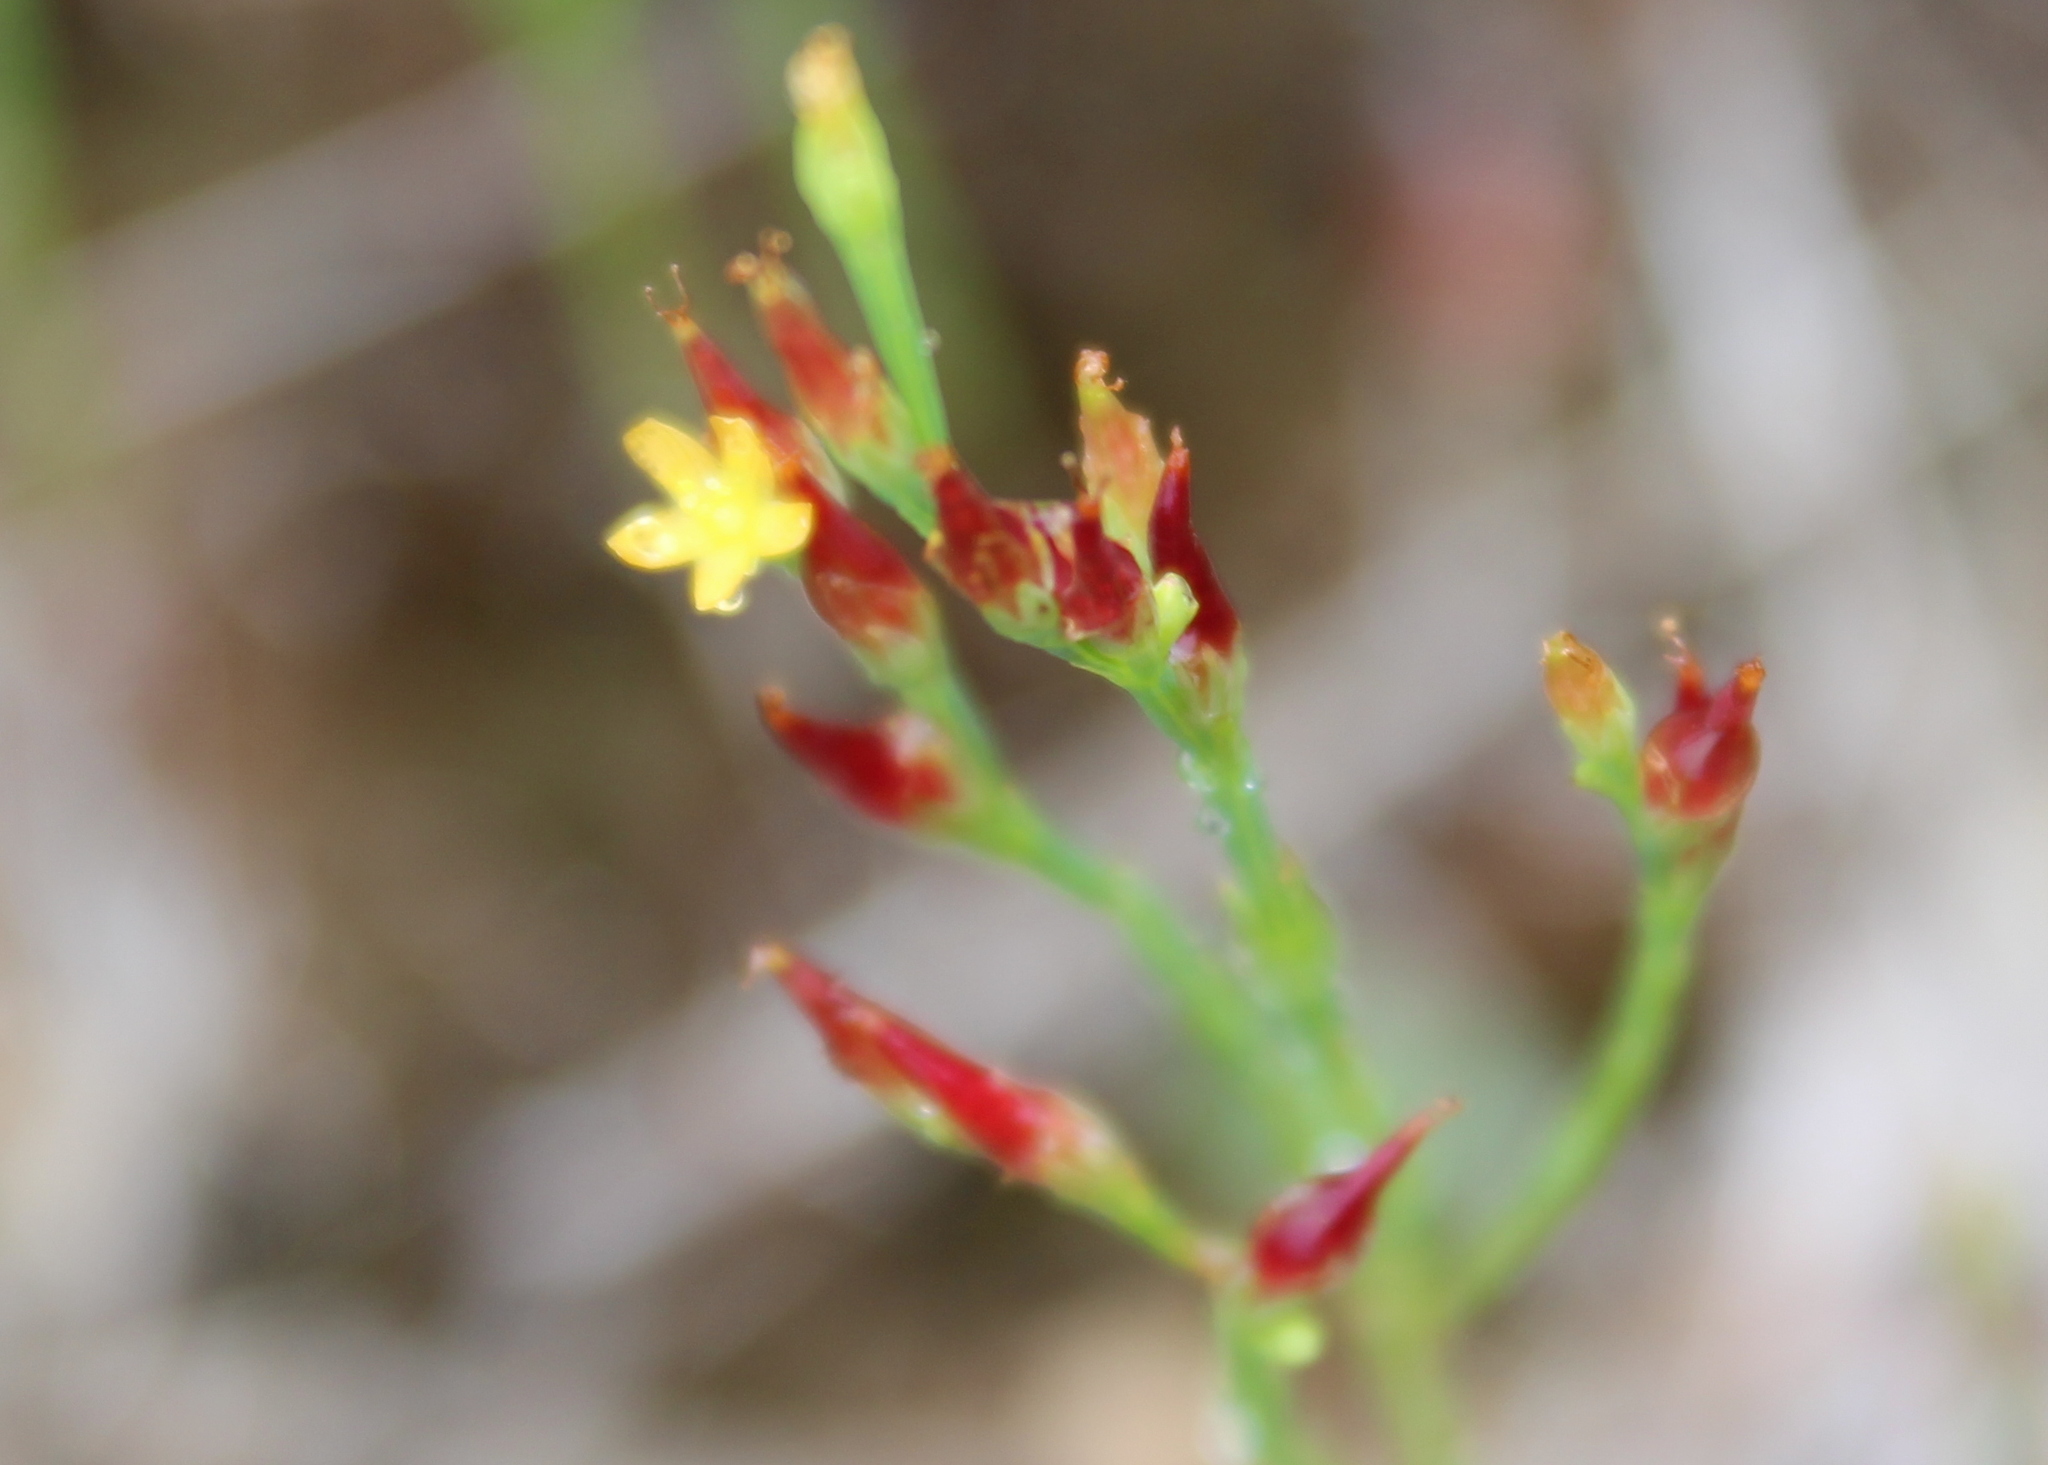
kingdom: Plantae
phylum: Tracheophyta
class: Magnoliopsida
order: Malpighiales
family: Hypericaceae
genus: Hypericum
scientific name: Hypericum gentianoides
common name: Gentian-leaved st. john's-wort
